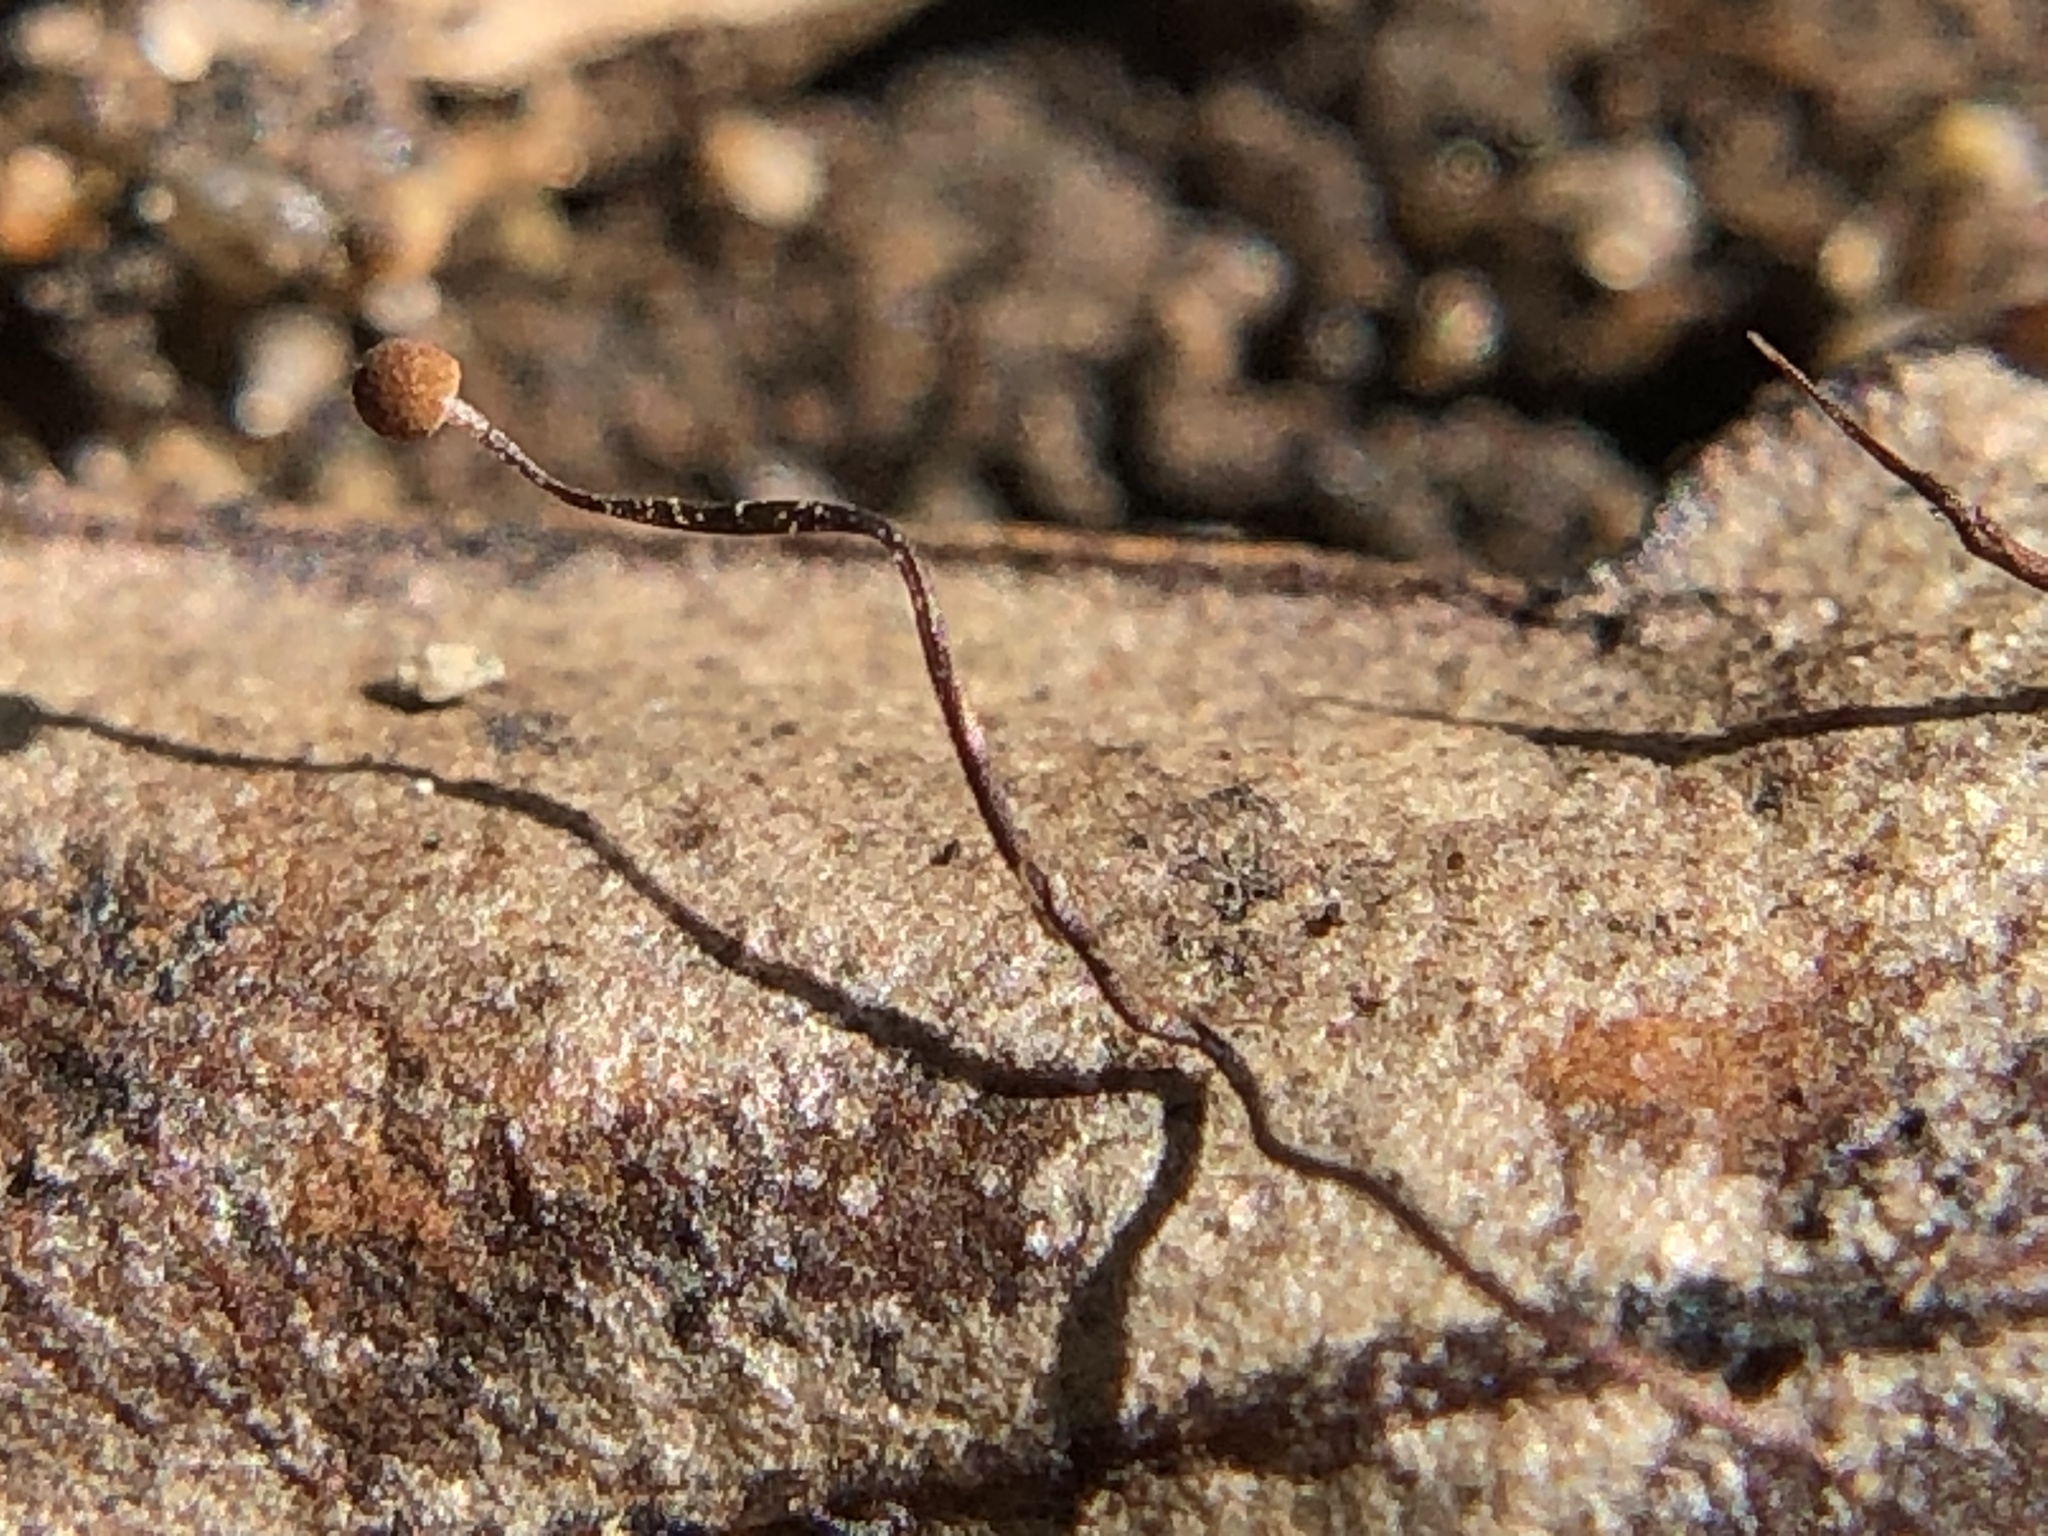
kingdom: Fungi
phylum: Basidiomycota
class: Agaricomycetes
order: Agaricales
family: Physalacriaceae
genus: Cryptomarasmius
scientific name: Cryptomarasmius corbariensis
